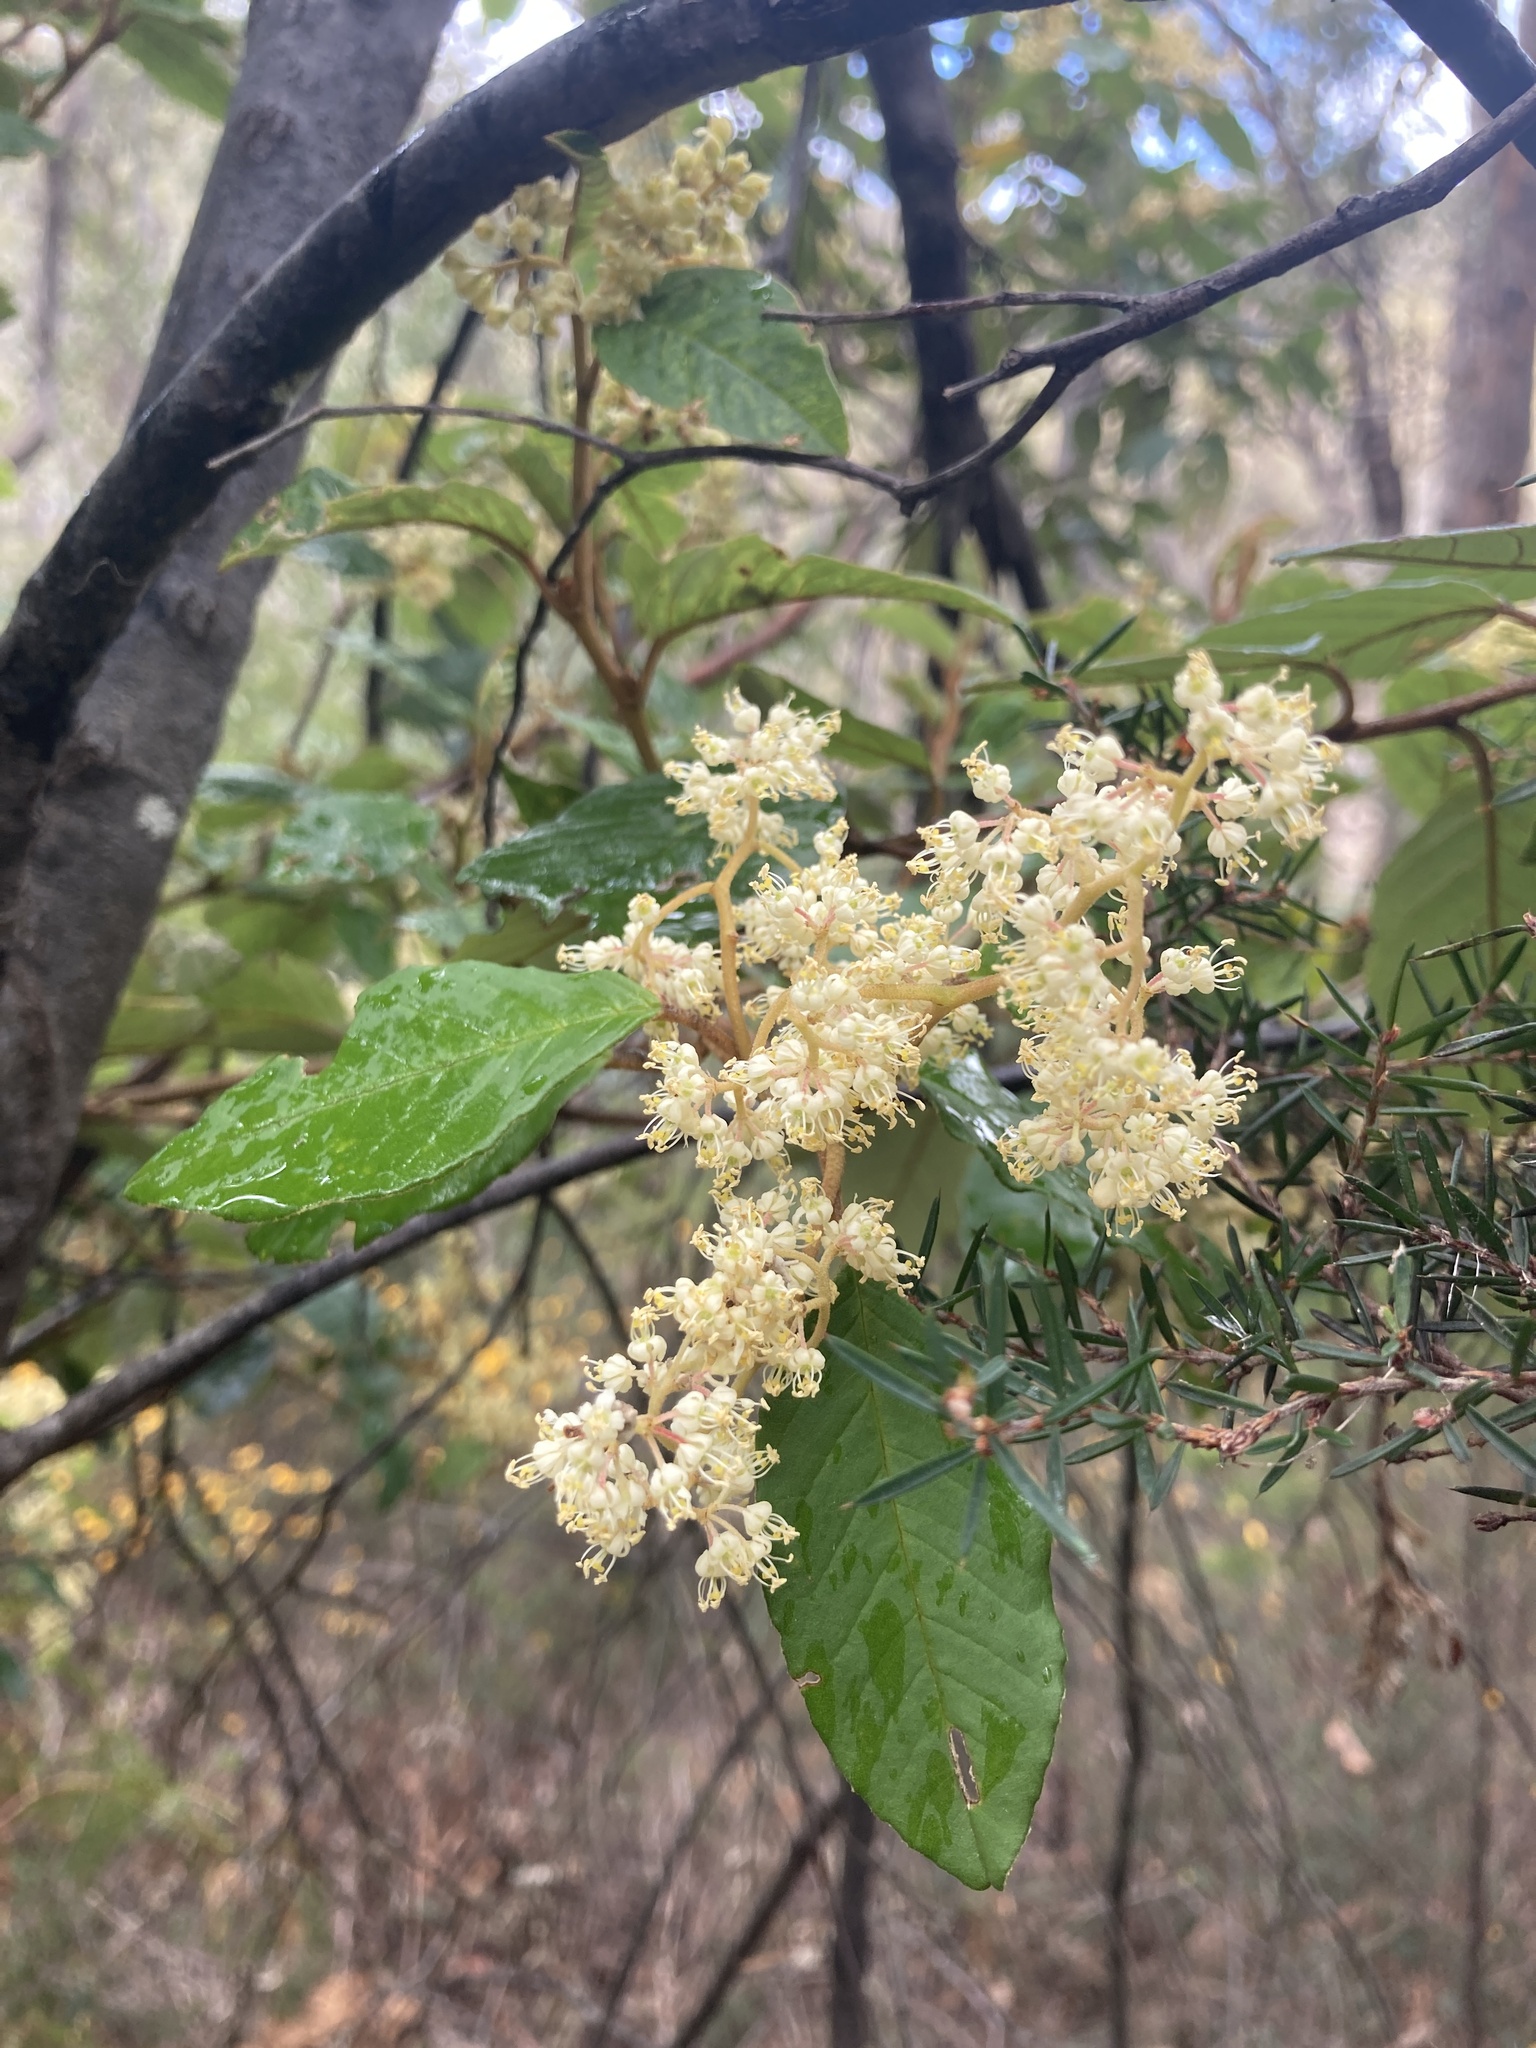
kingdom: Plantae
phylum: Tracheophyta
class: Magnoliopsida
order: Rosales
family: Rhamnaceae
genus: Pomaderris
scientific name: Pomaderris elliptica
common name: Yellow-dogwood
